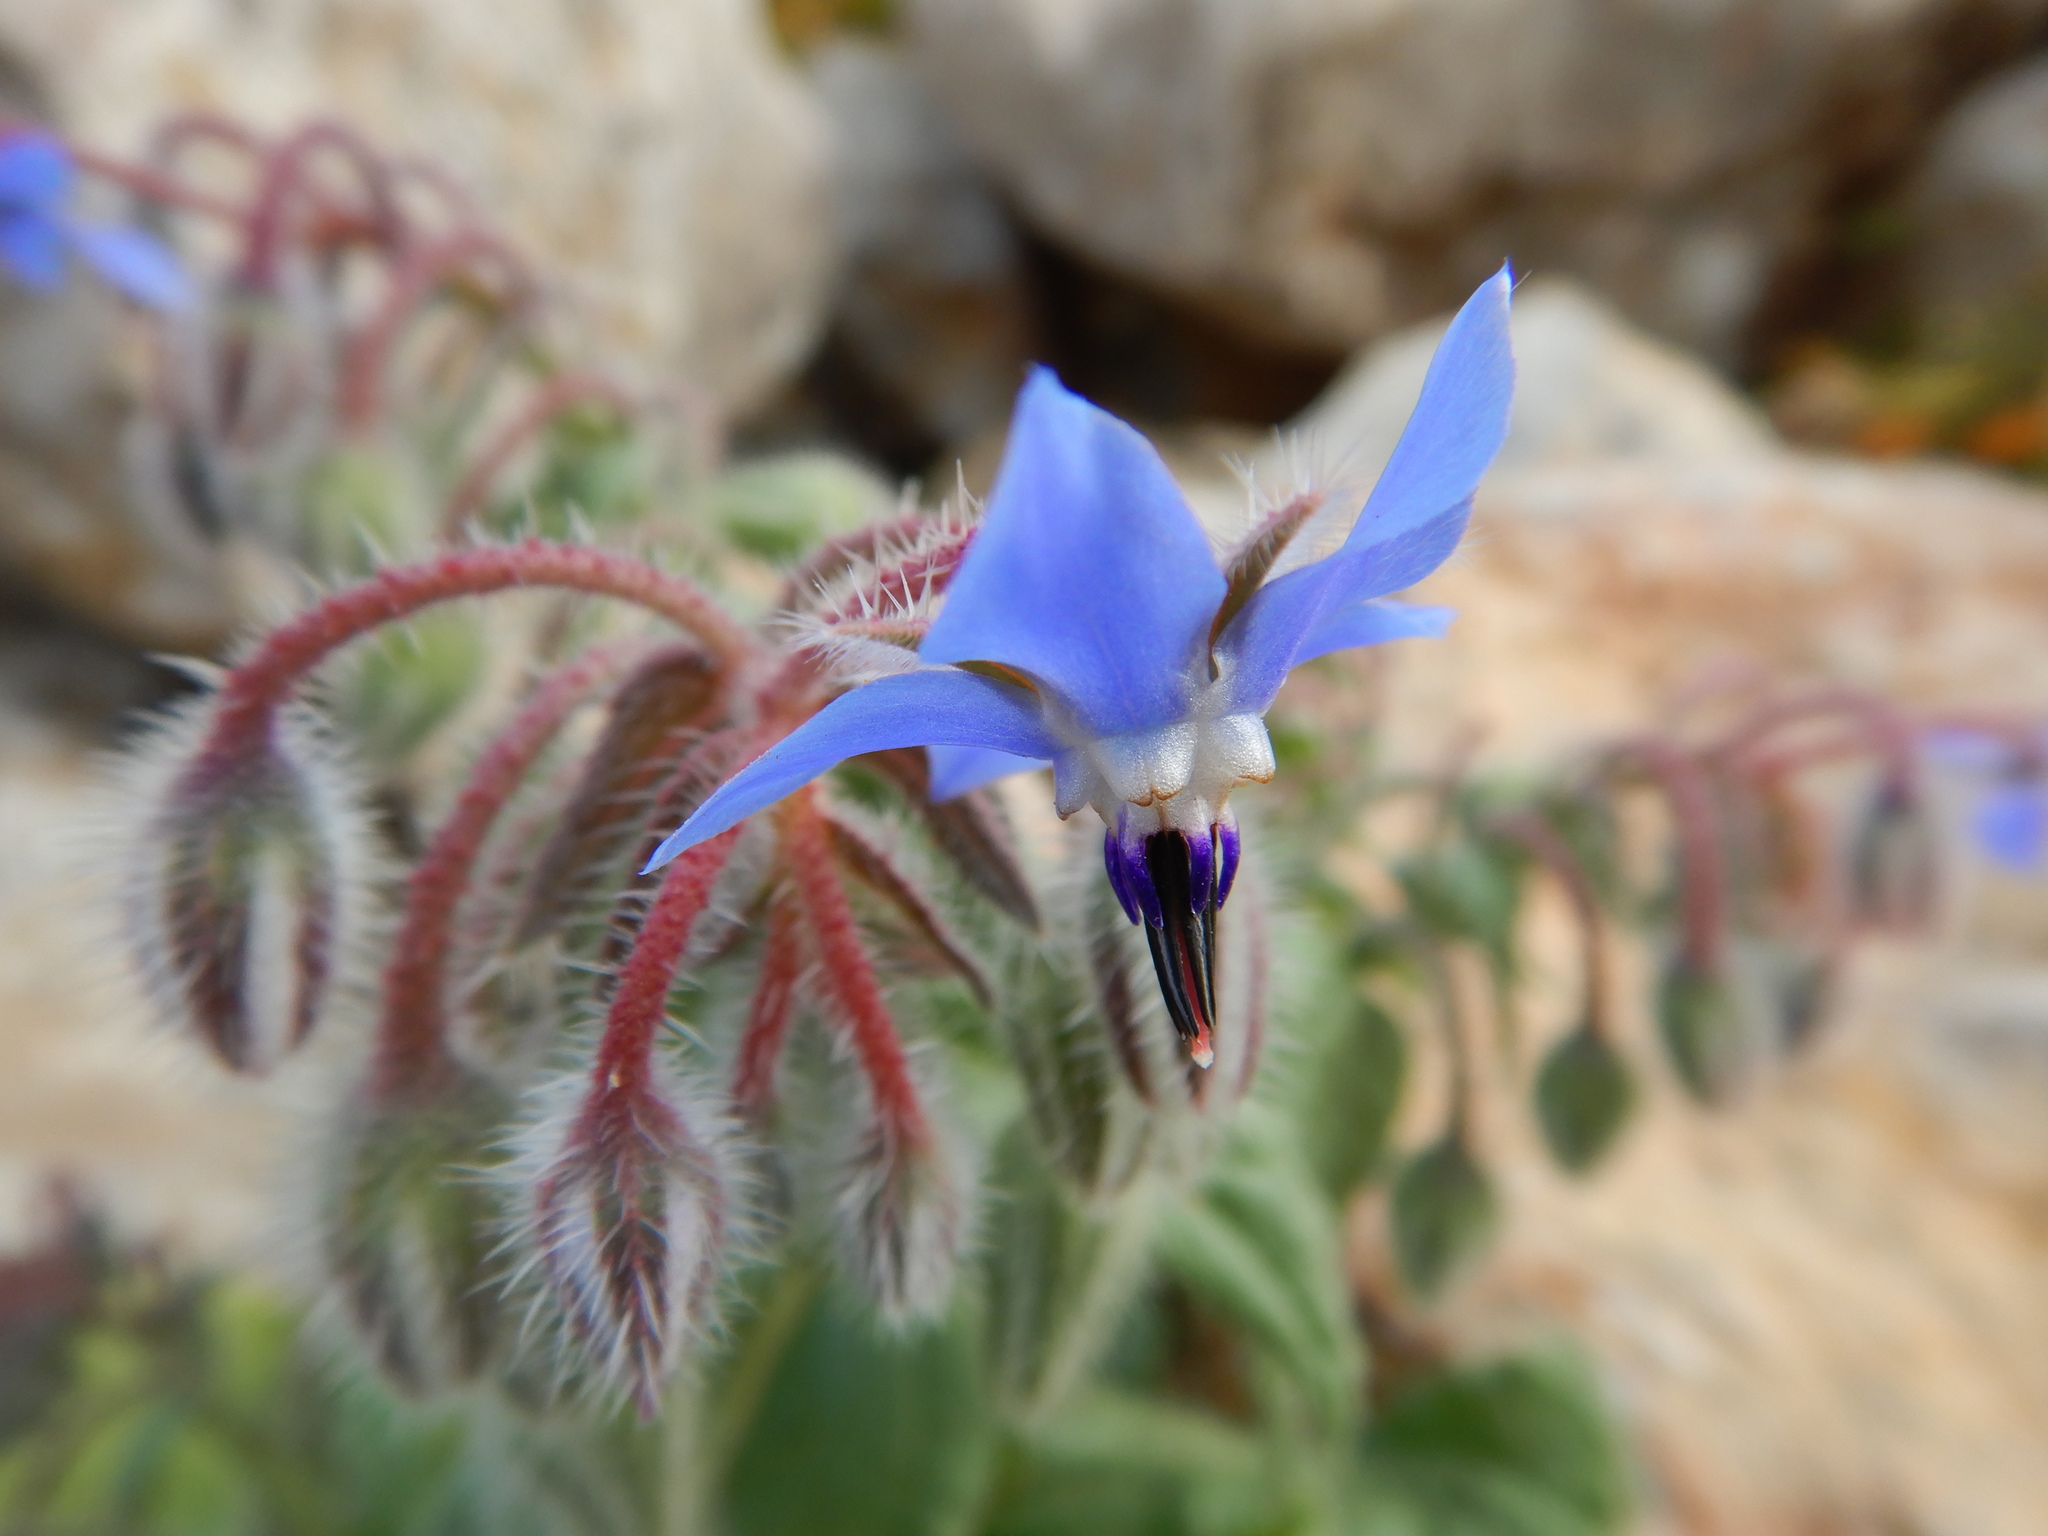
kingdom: Plantae
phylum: Tracheophyta
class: Magnoliopsida
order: Boraginales
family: Boraginaceae
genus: Borago
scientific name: Borago officinalis
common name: Borage
